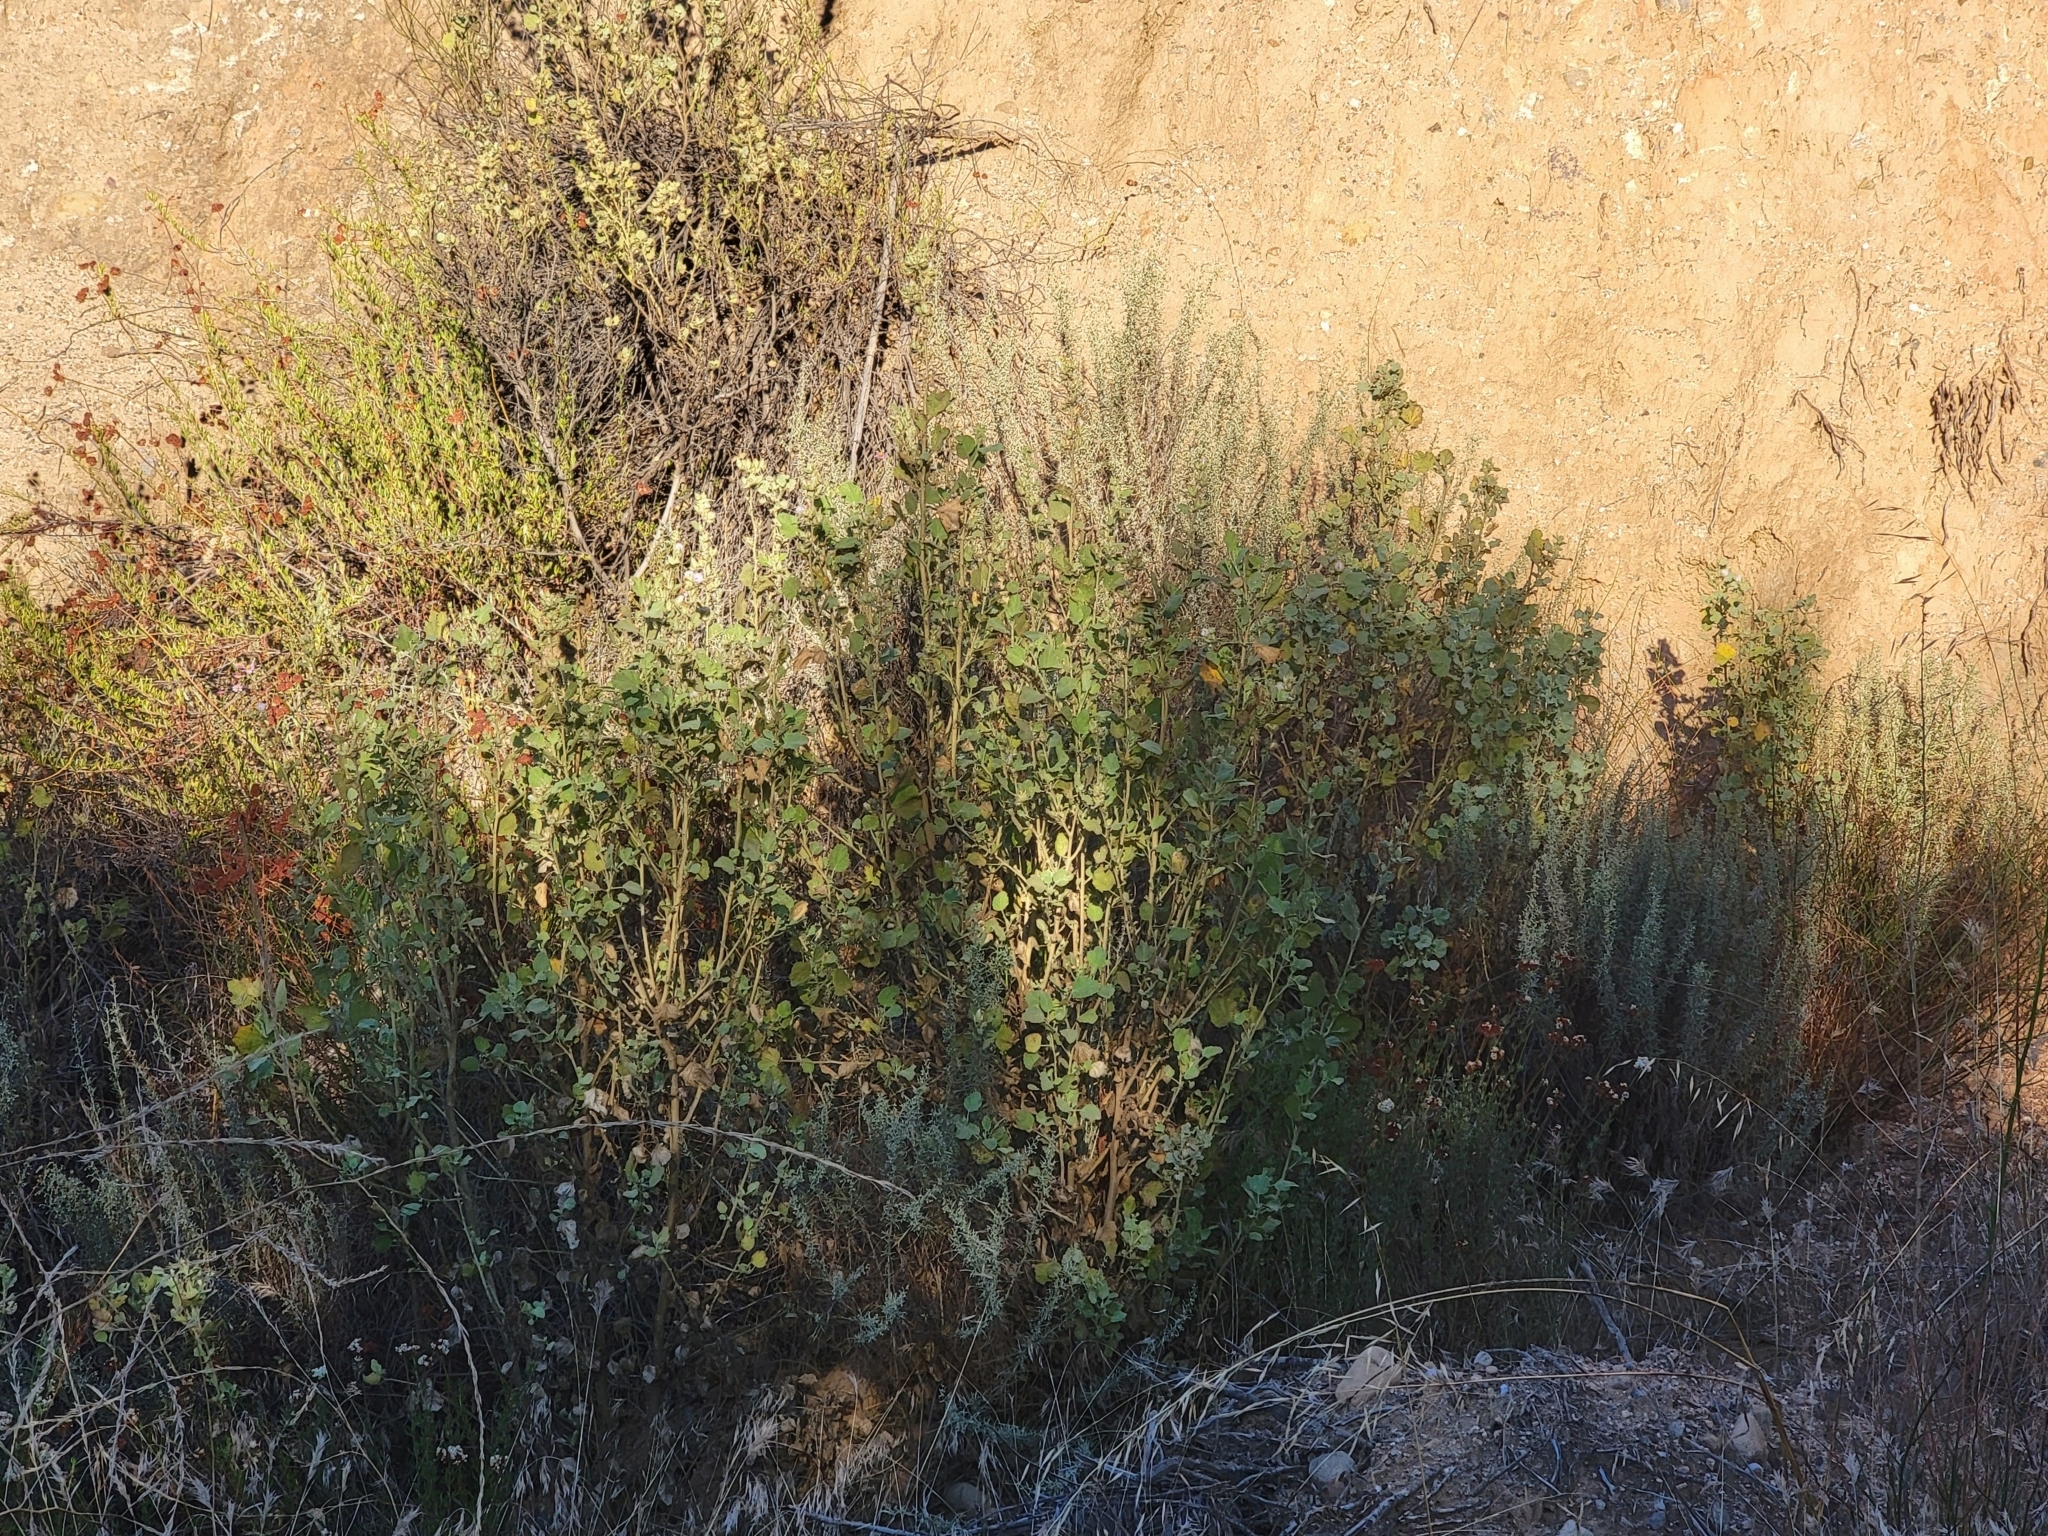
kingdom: Plantae
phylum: Tracheophyta
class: Magnoliopsida
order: Malvales
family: Malvaceae
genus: Malacothamnus
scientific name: Malacothamnus marrubioides
